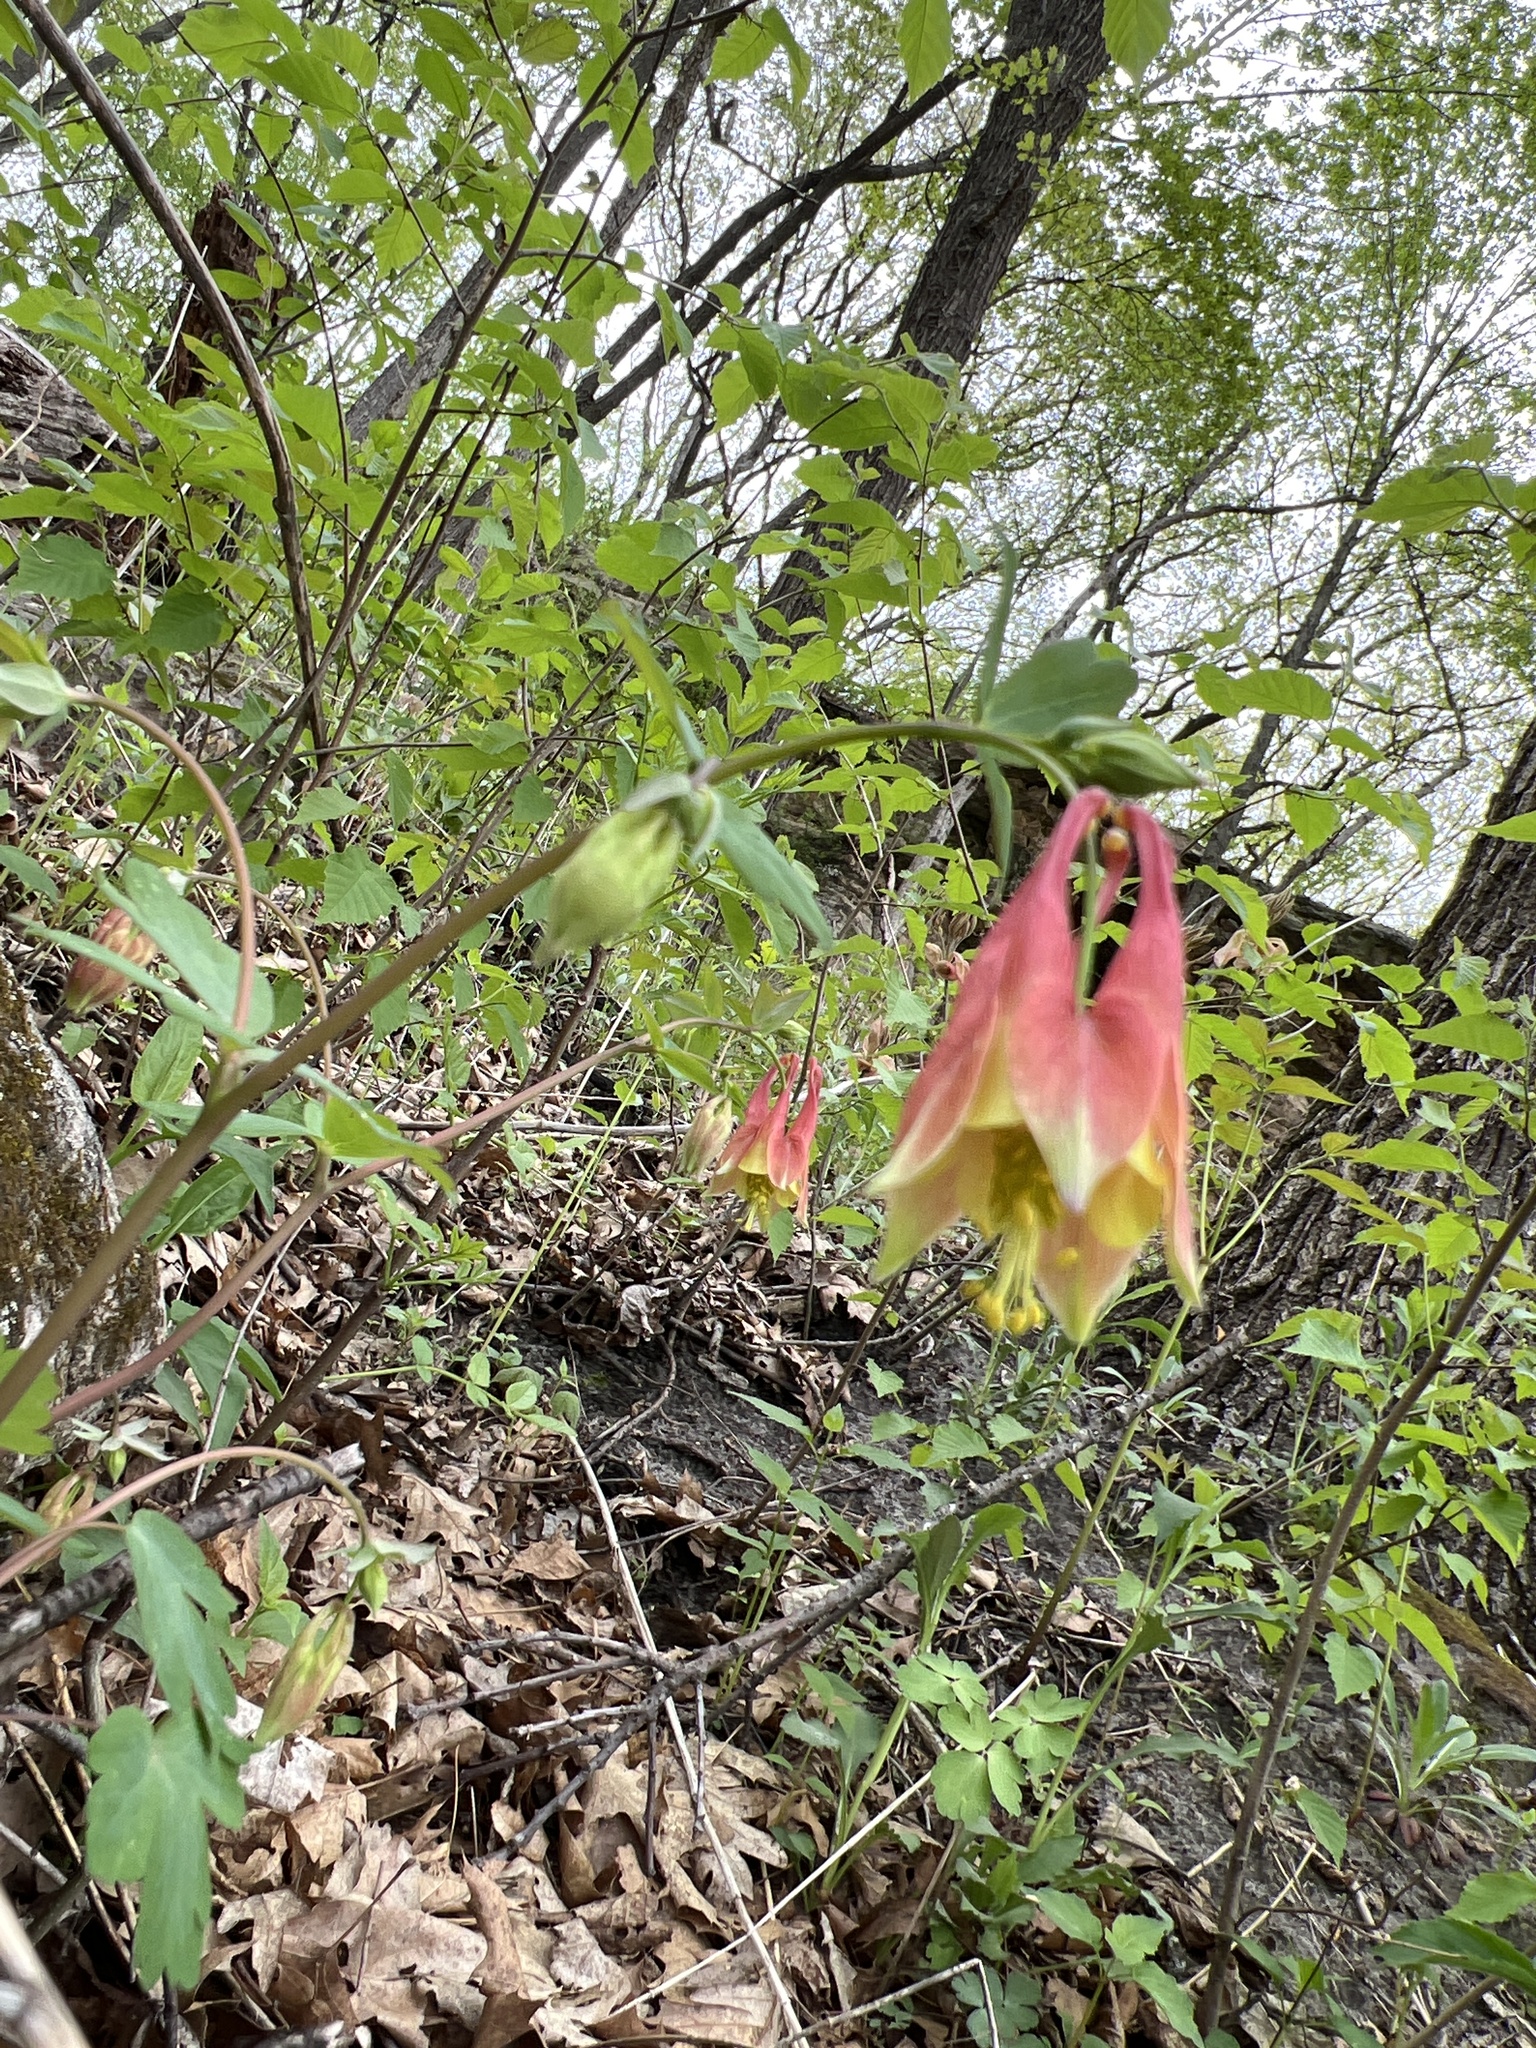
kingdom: Plantae
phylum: Tracheophyta
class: Magnoliopsida
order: Ranunculales
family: Ranunculaceae
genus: Aquilegia
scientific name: Aquilegia canadensis
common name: American columbine
